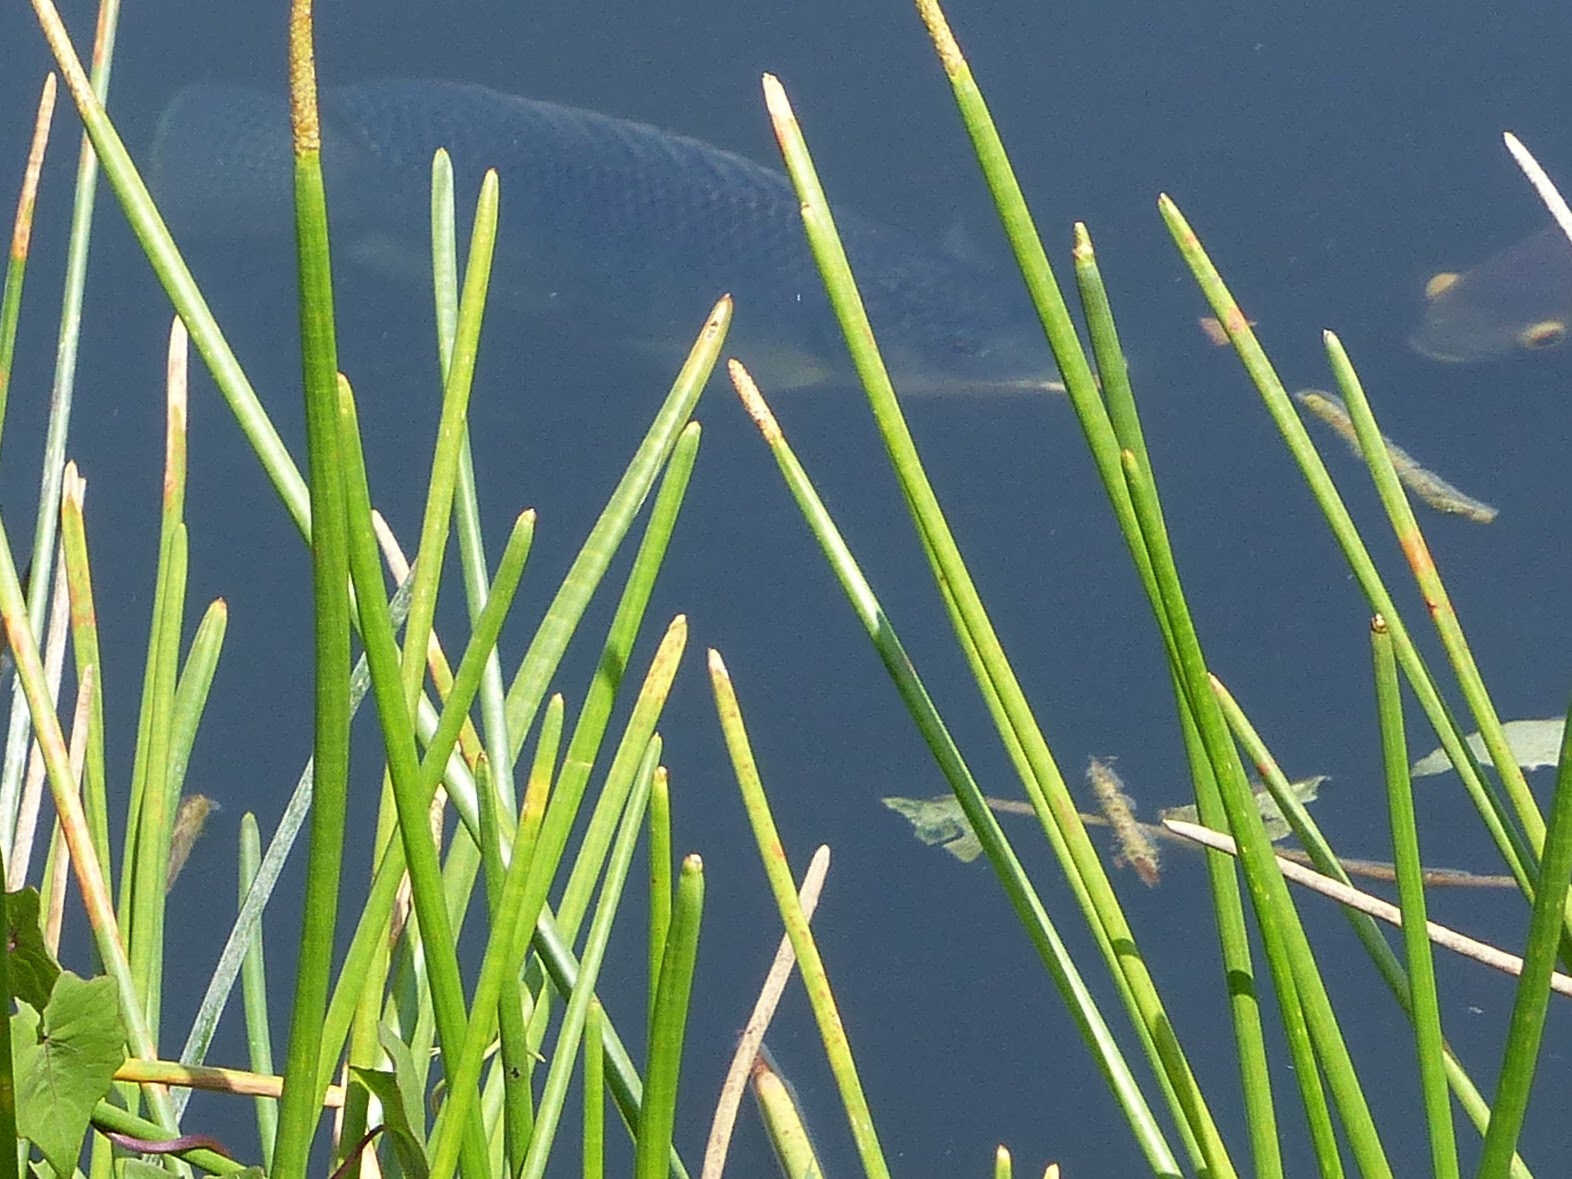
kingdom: Animalia
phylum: Chordata
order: Perciformes
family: Cichlidae
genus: Oreochromis
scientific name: Oreochromis aureus
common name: Blue tilapia
